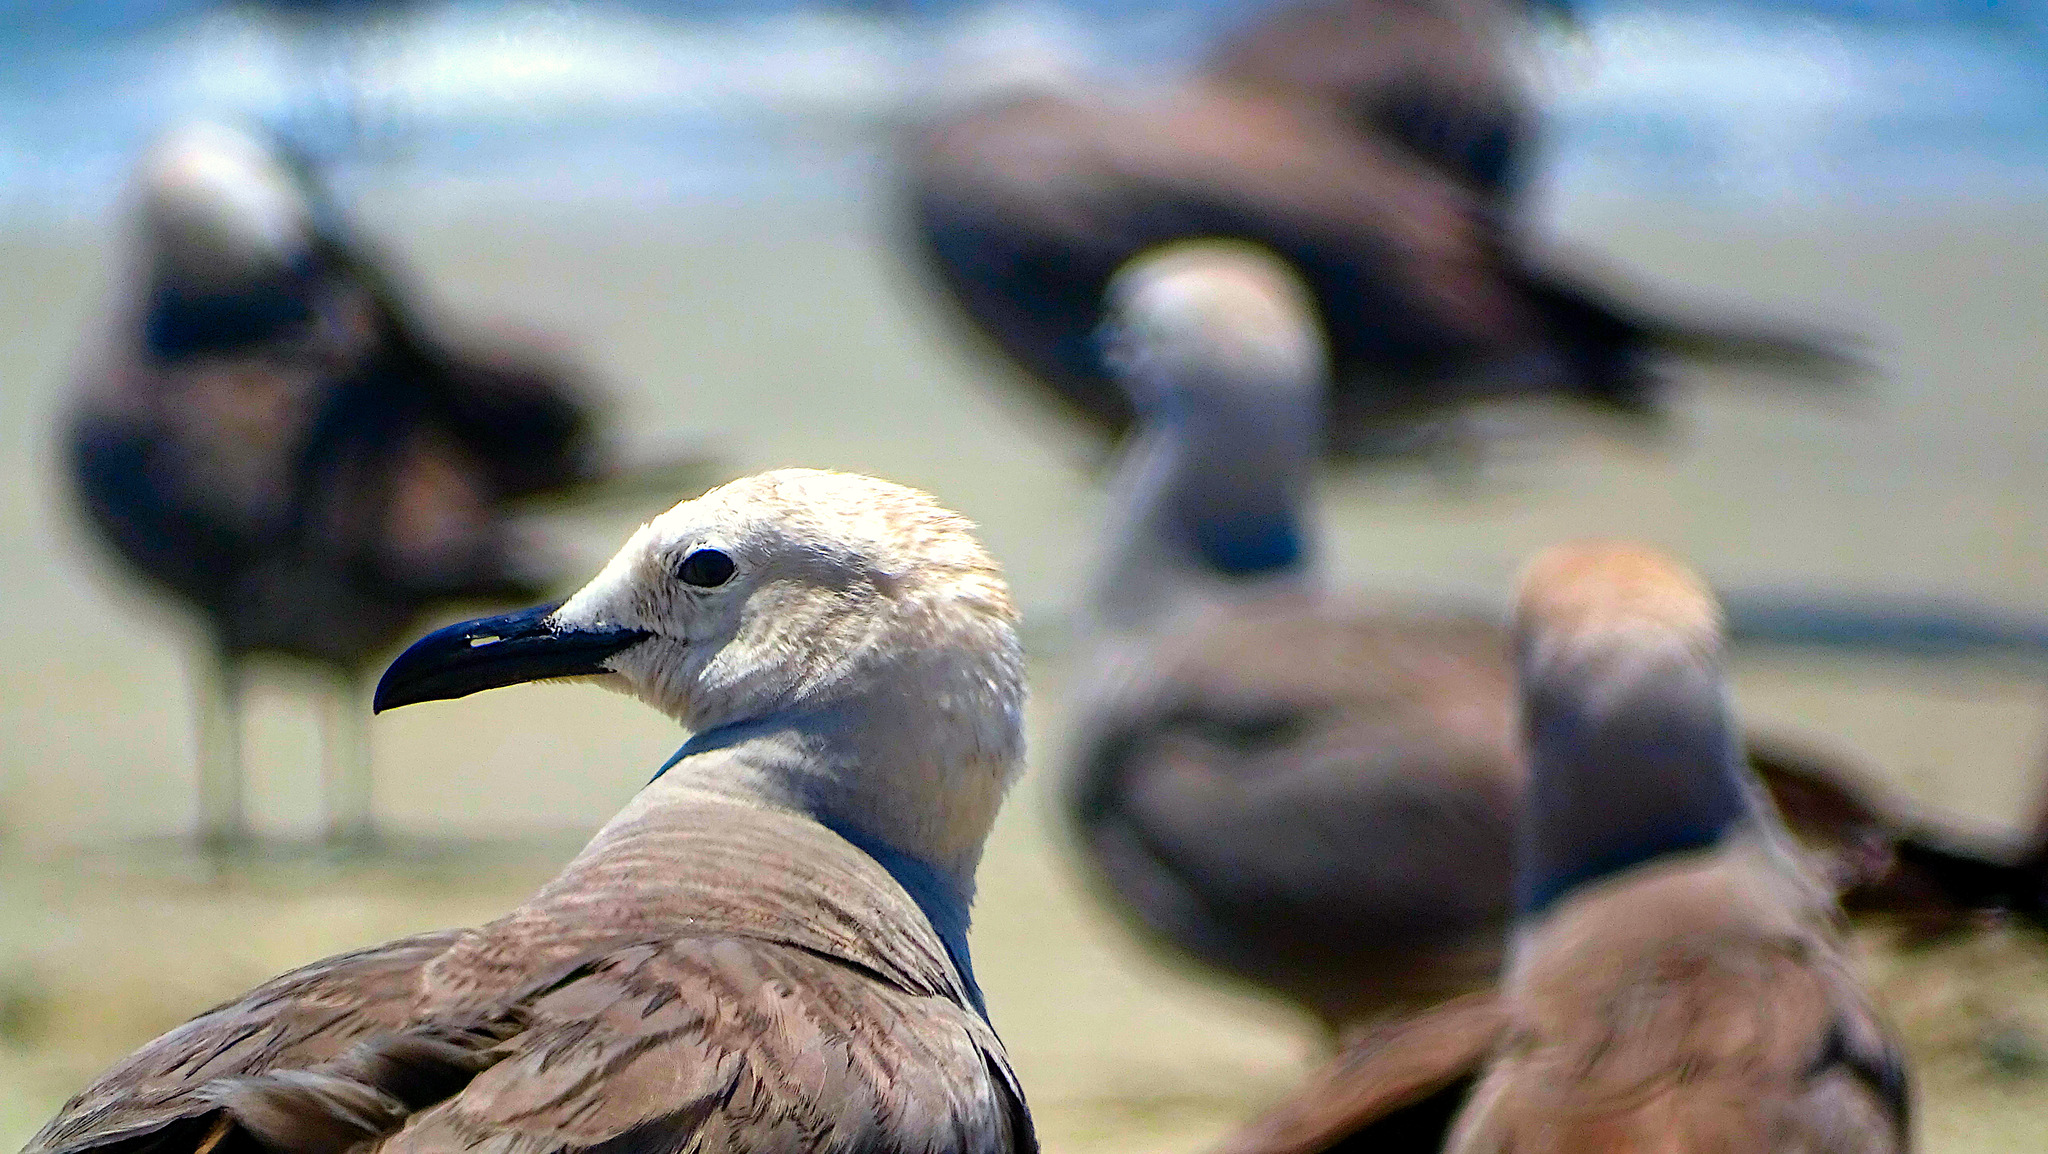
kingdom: Animalia
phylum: Chordata
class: Aves
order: Charadriiformes
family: Laridae
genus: Leucophaeus
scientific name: Leucophaeus modestus
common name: Gray gull
